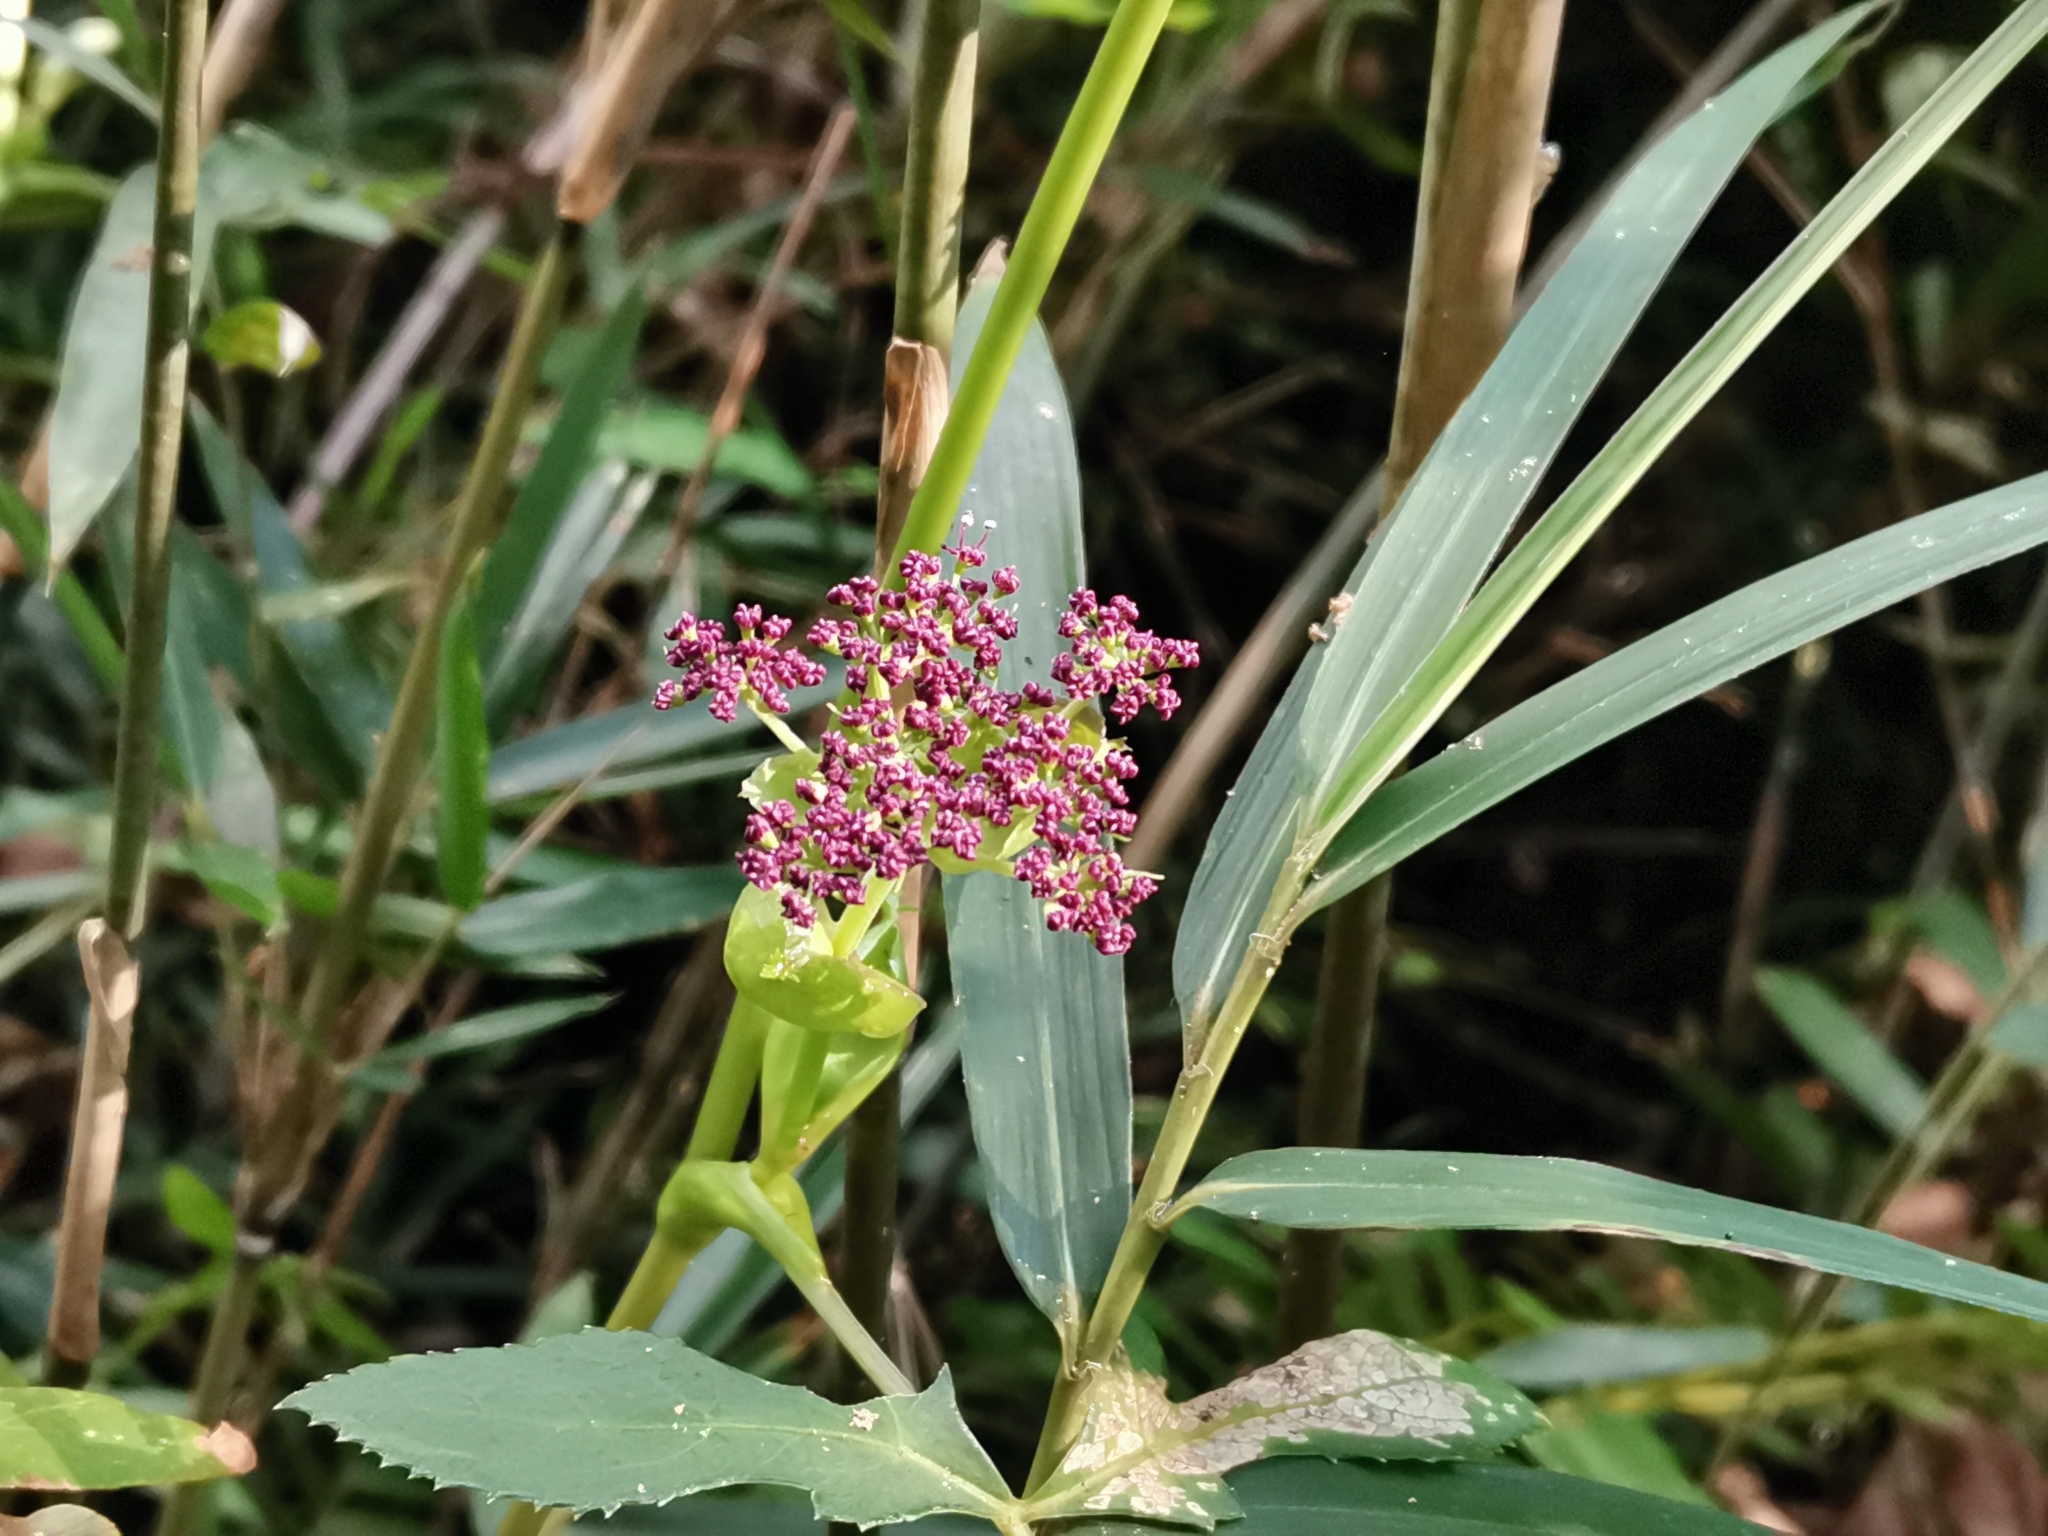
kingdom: Plantae
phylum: Tracheophyta
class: Magnoliopsida
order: Apiales
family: Apiaceae
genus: Halosciastrum
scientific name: Halosciastrum melanotilingia
